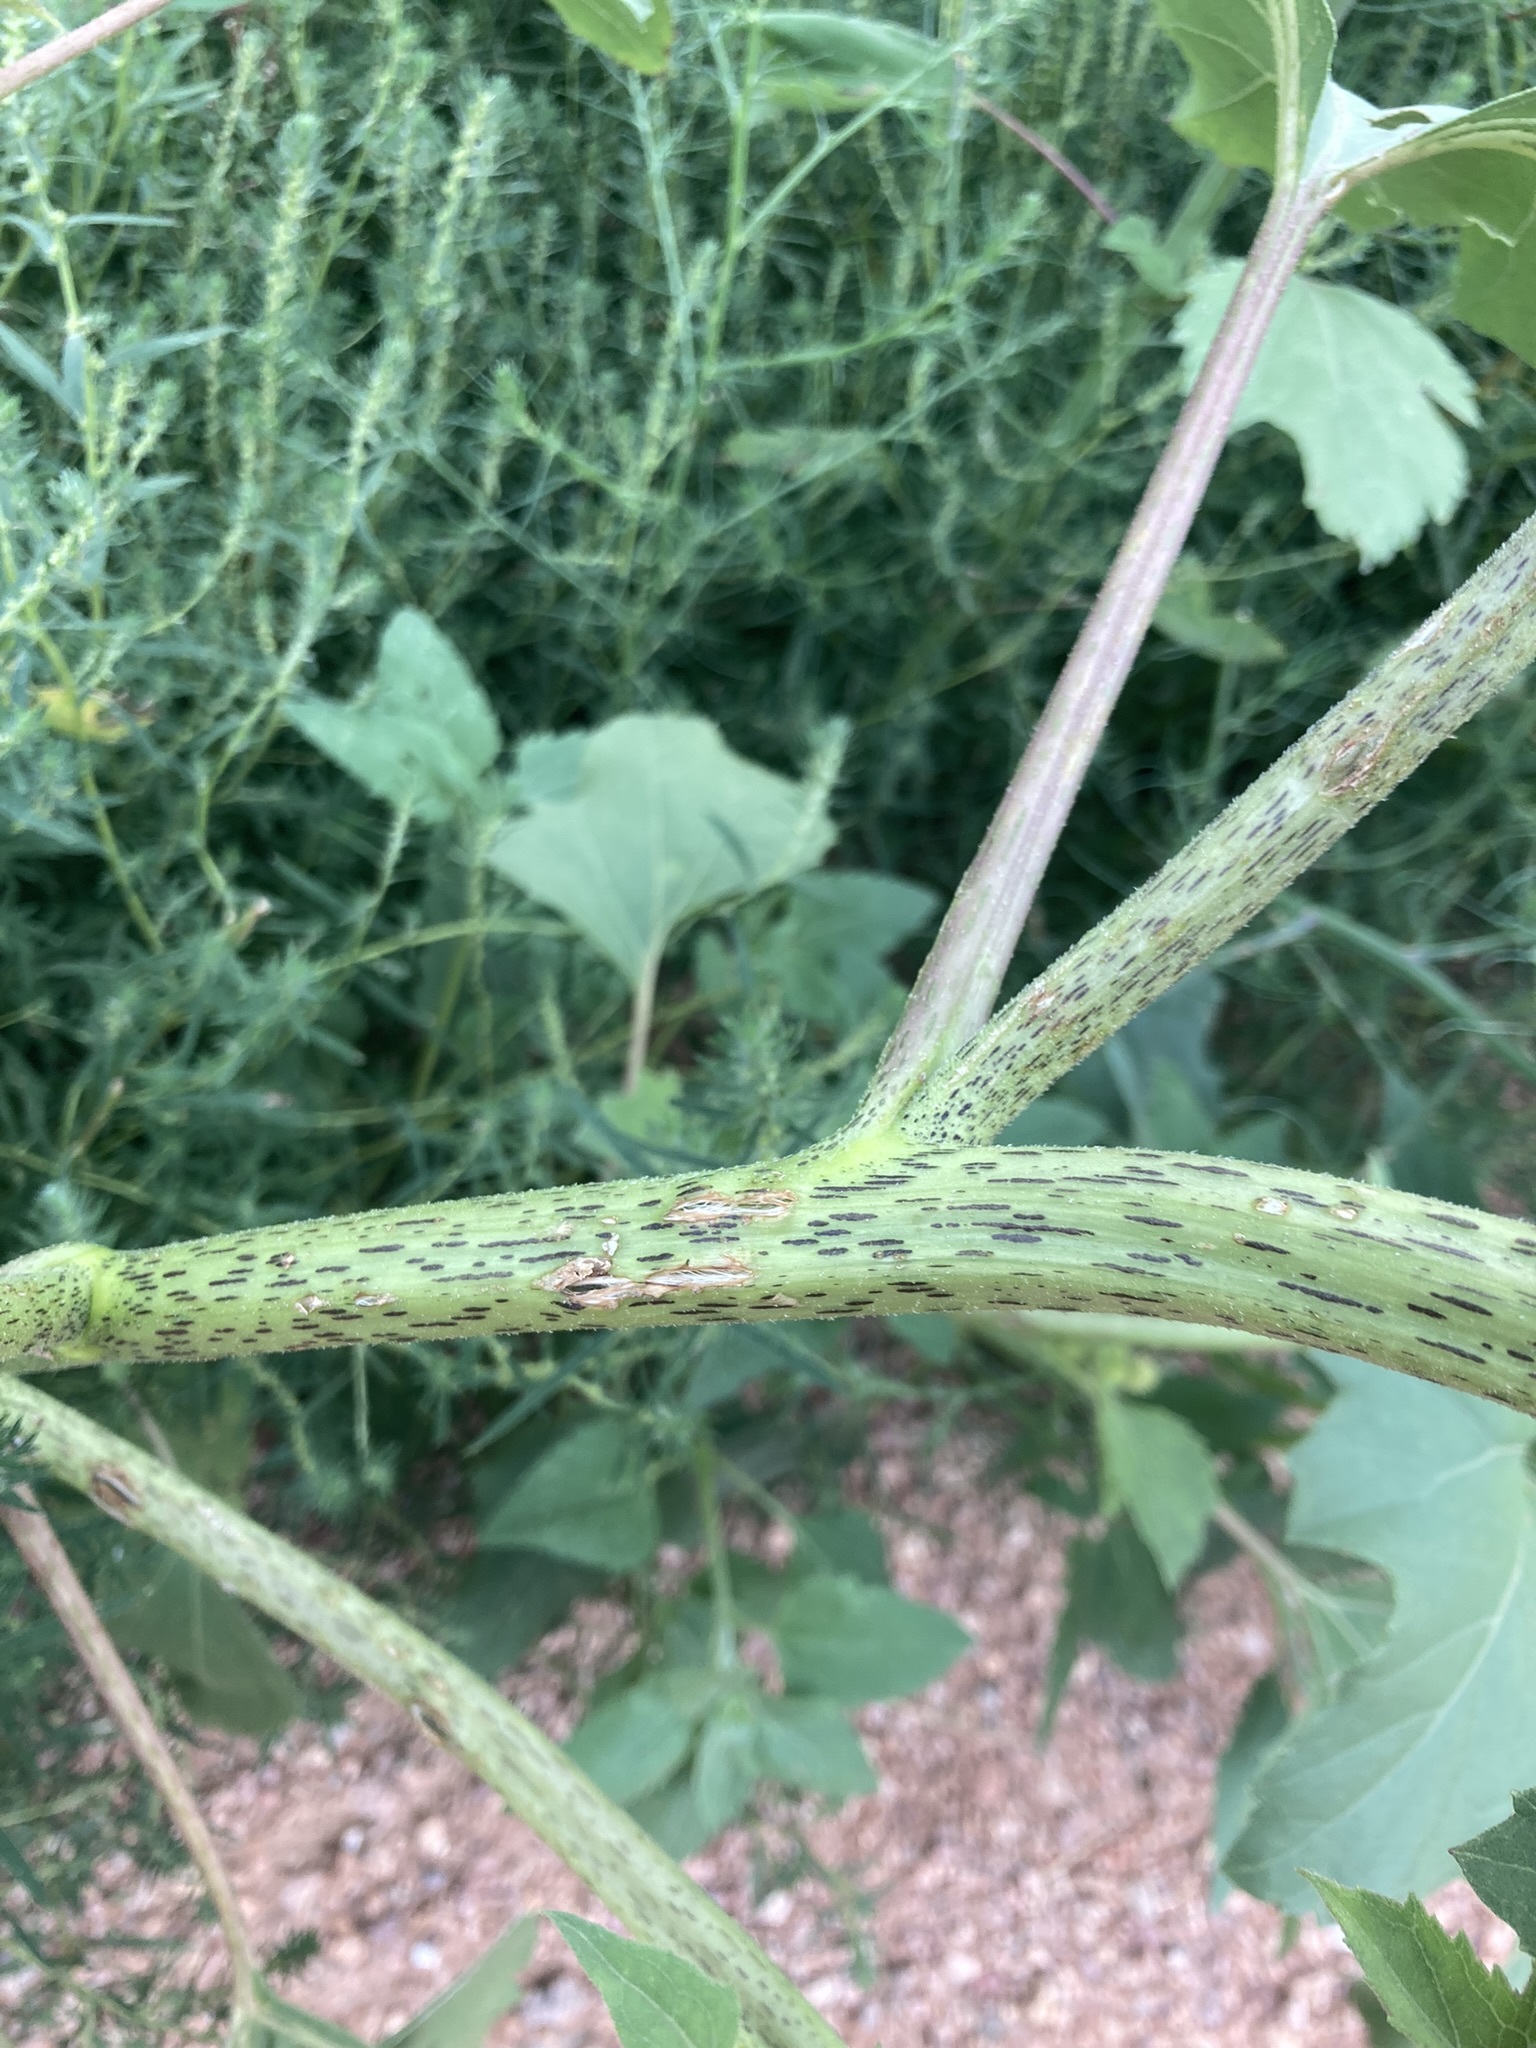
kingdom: Plantae
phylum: Tracheophyta
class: Magnoliopsida
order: Asterales
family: Asteraceae
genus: Xanthium
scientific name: Xanthium strumarium
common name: Rough cocklebur
